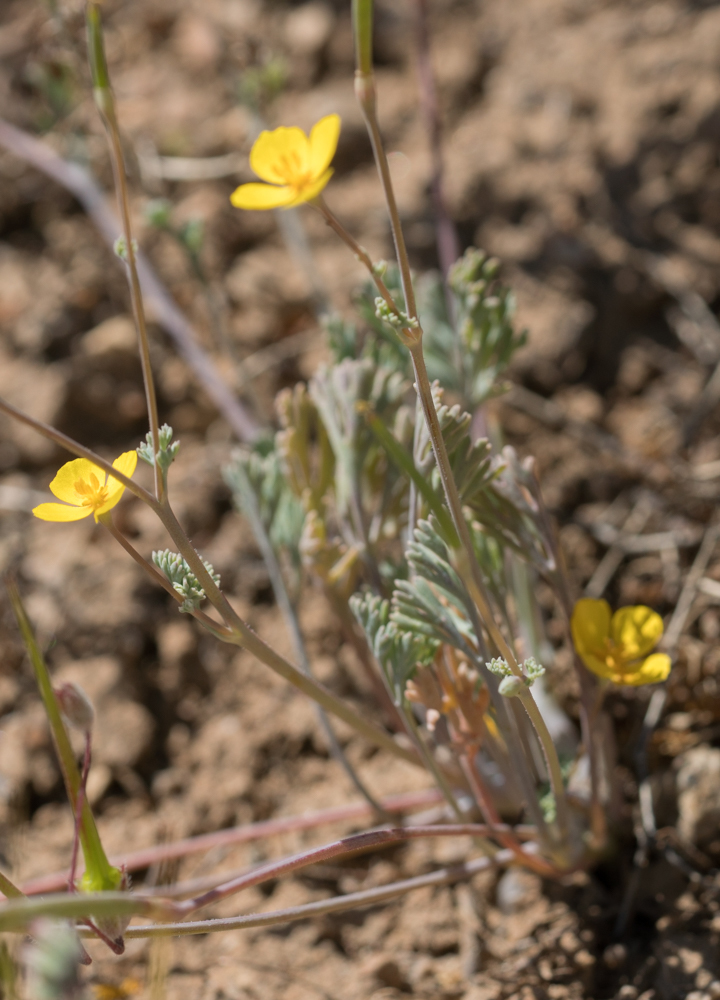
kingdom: Plantae
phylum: Tracheophyta
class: Magnoliopsida
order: Ranunculales
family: Papaveraceae
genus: Eschscholzia
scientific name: Eschscholzia minutiflora
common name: Small-flower california-poppy
